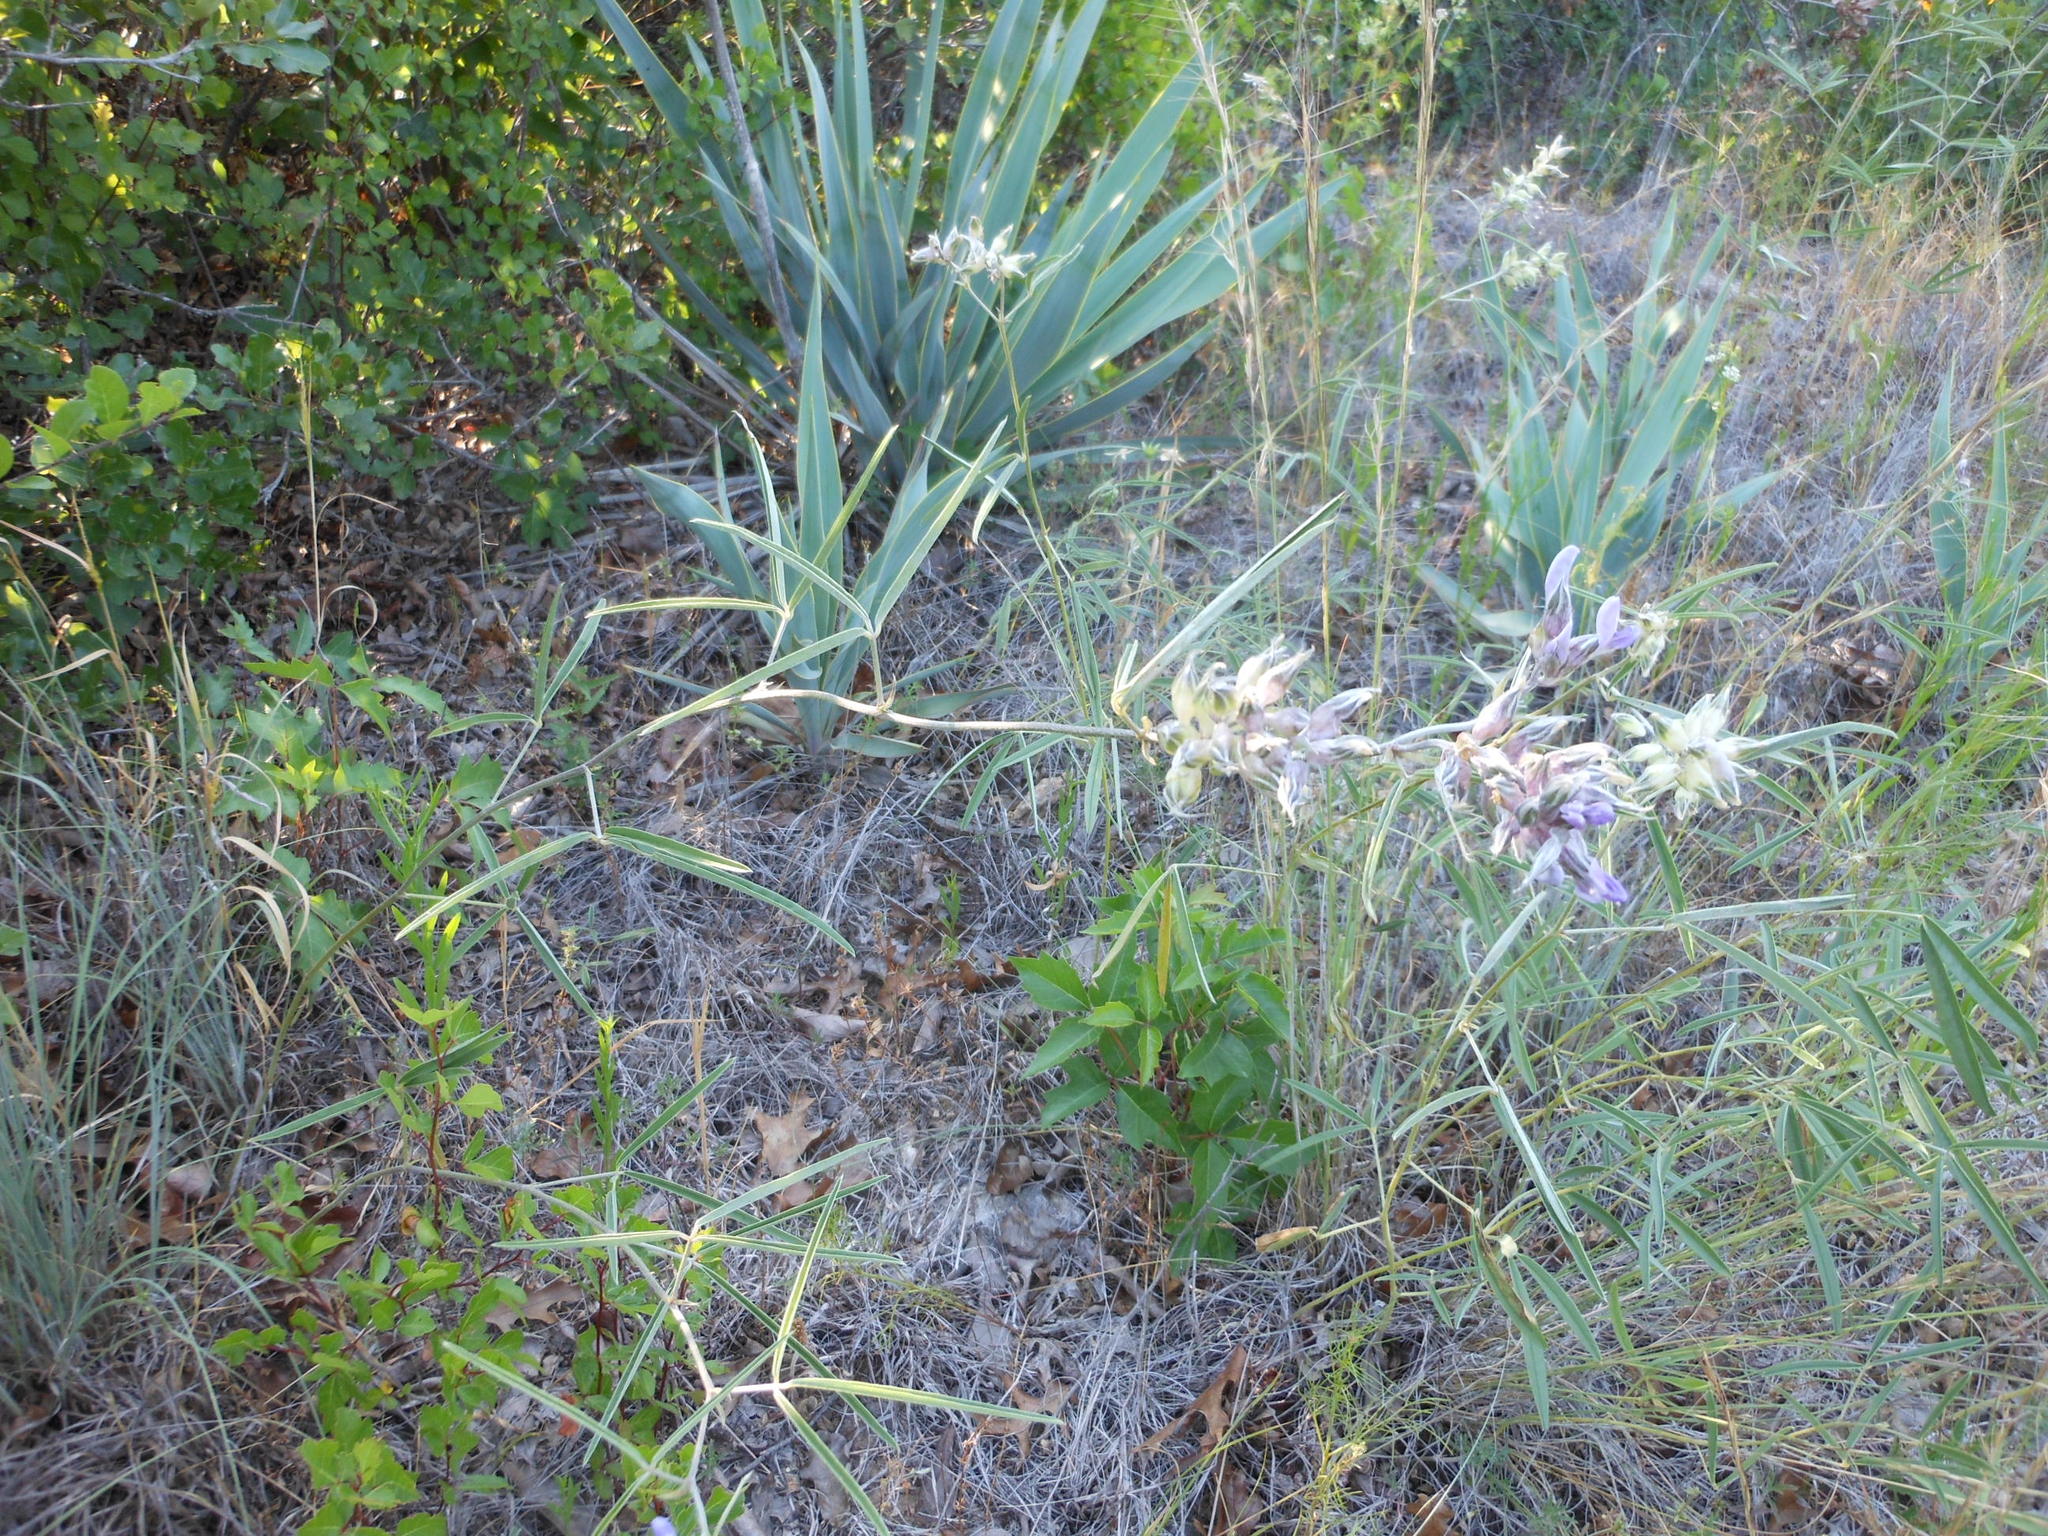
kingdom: Plantae
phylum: Tracheophyta
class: Magnoliopsida
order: Fabales
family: Fabaceae
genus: Pediomelum
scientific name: Pediomelum cyphocalyx
